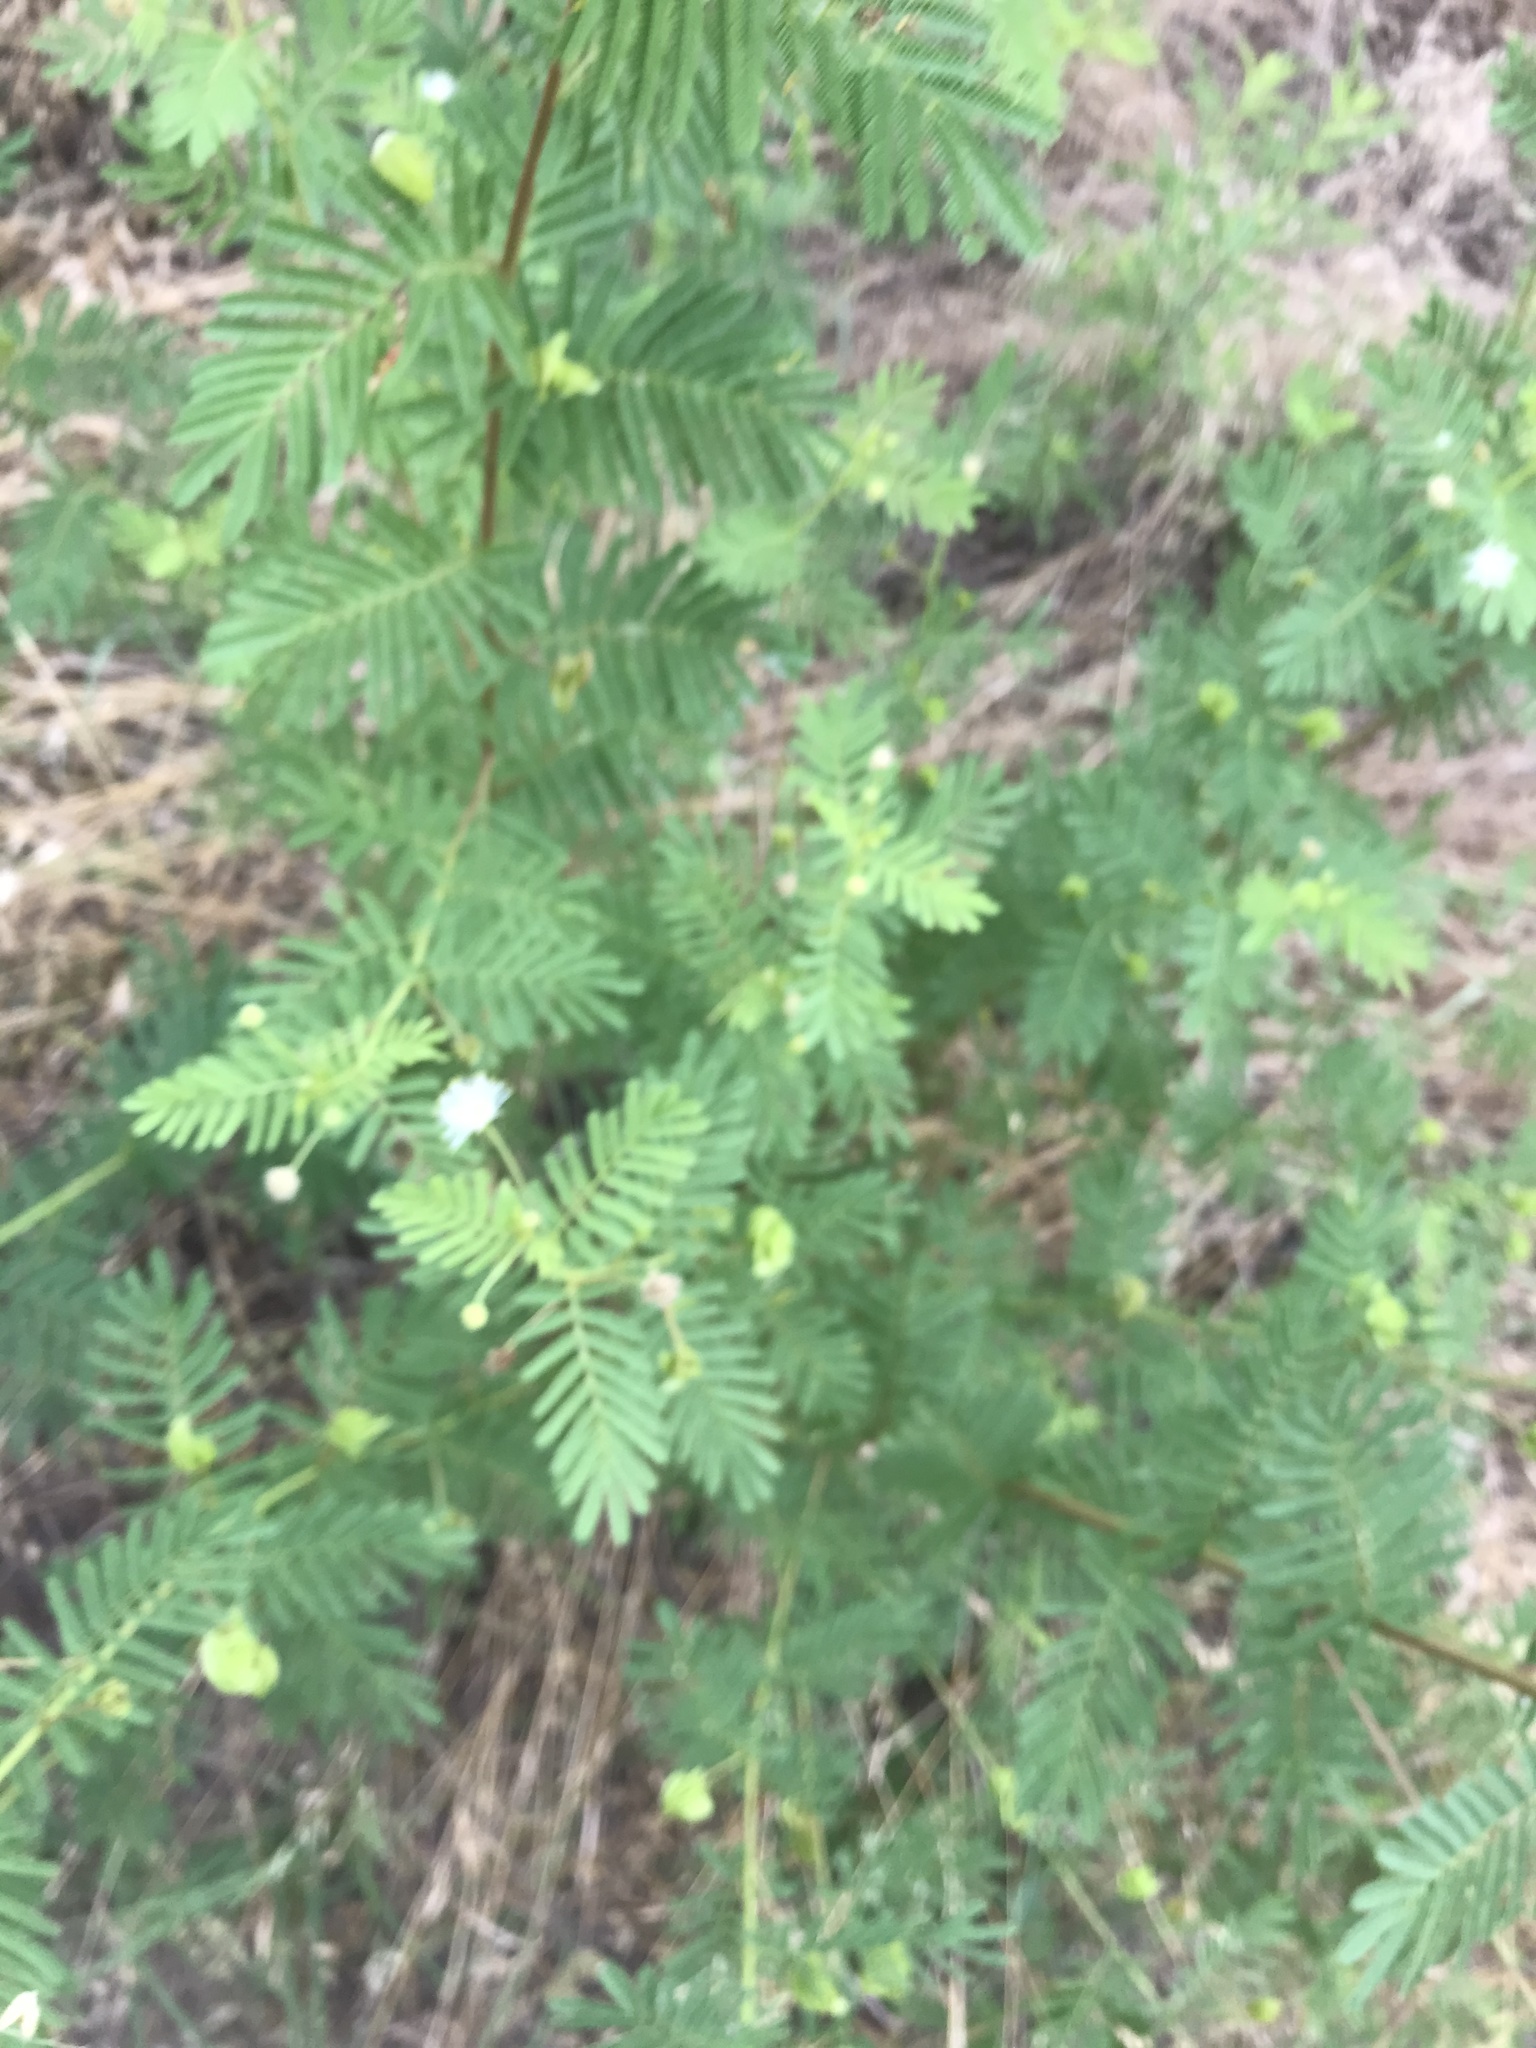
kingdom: Plantae
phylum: Tracheophyta
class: Magnoliopsida
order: Fabales
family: Fabaceae
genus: Desmanthus
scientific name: Desmanthus illinoensis
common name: Illinois bundle-flower
